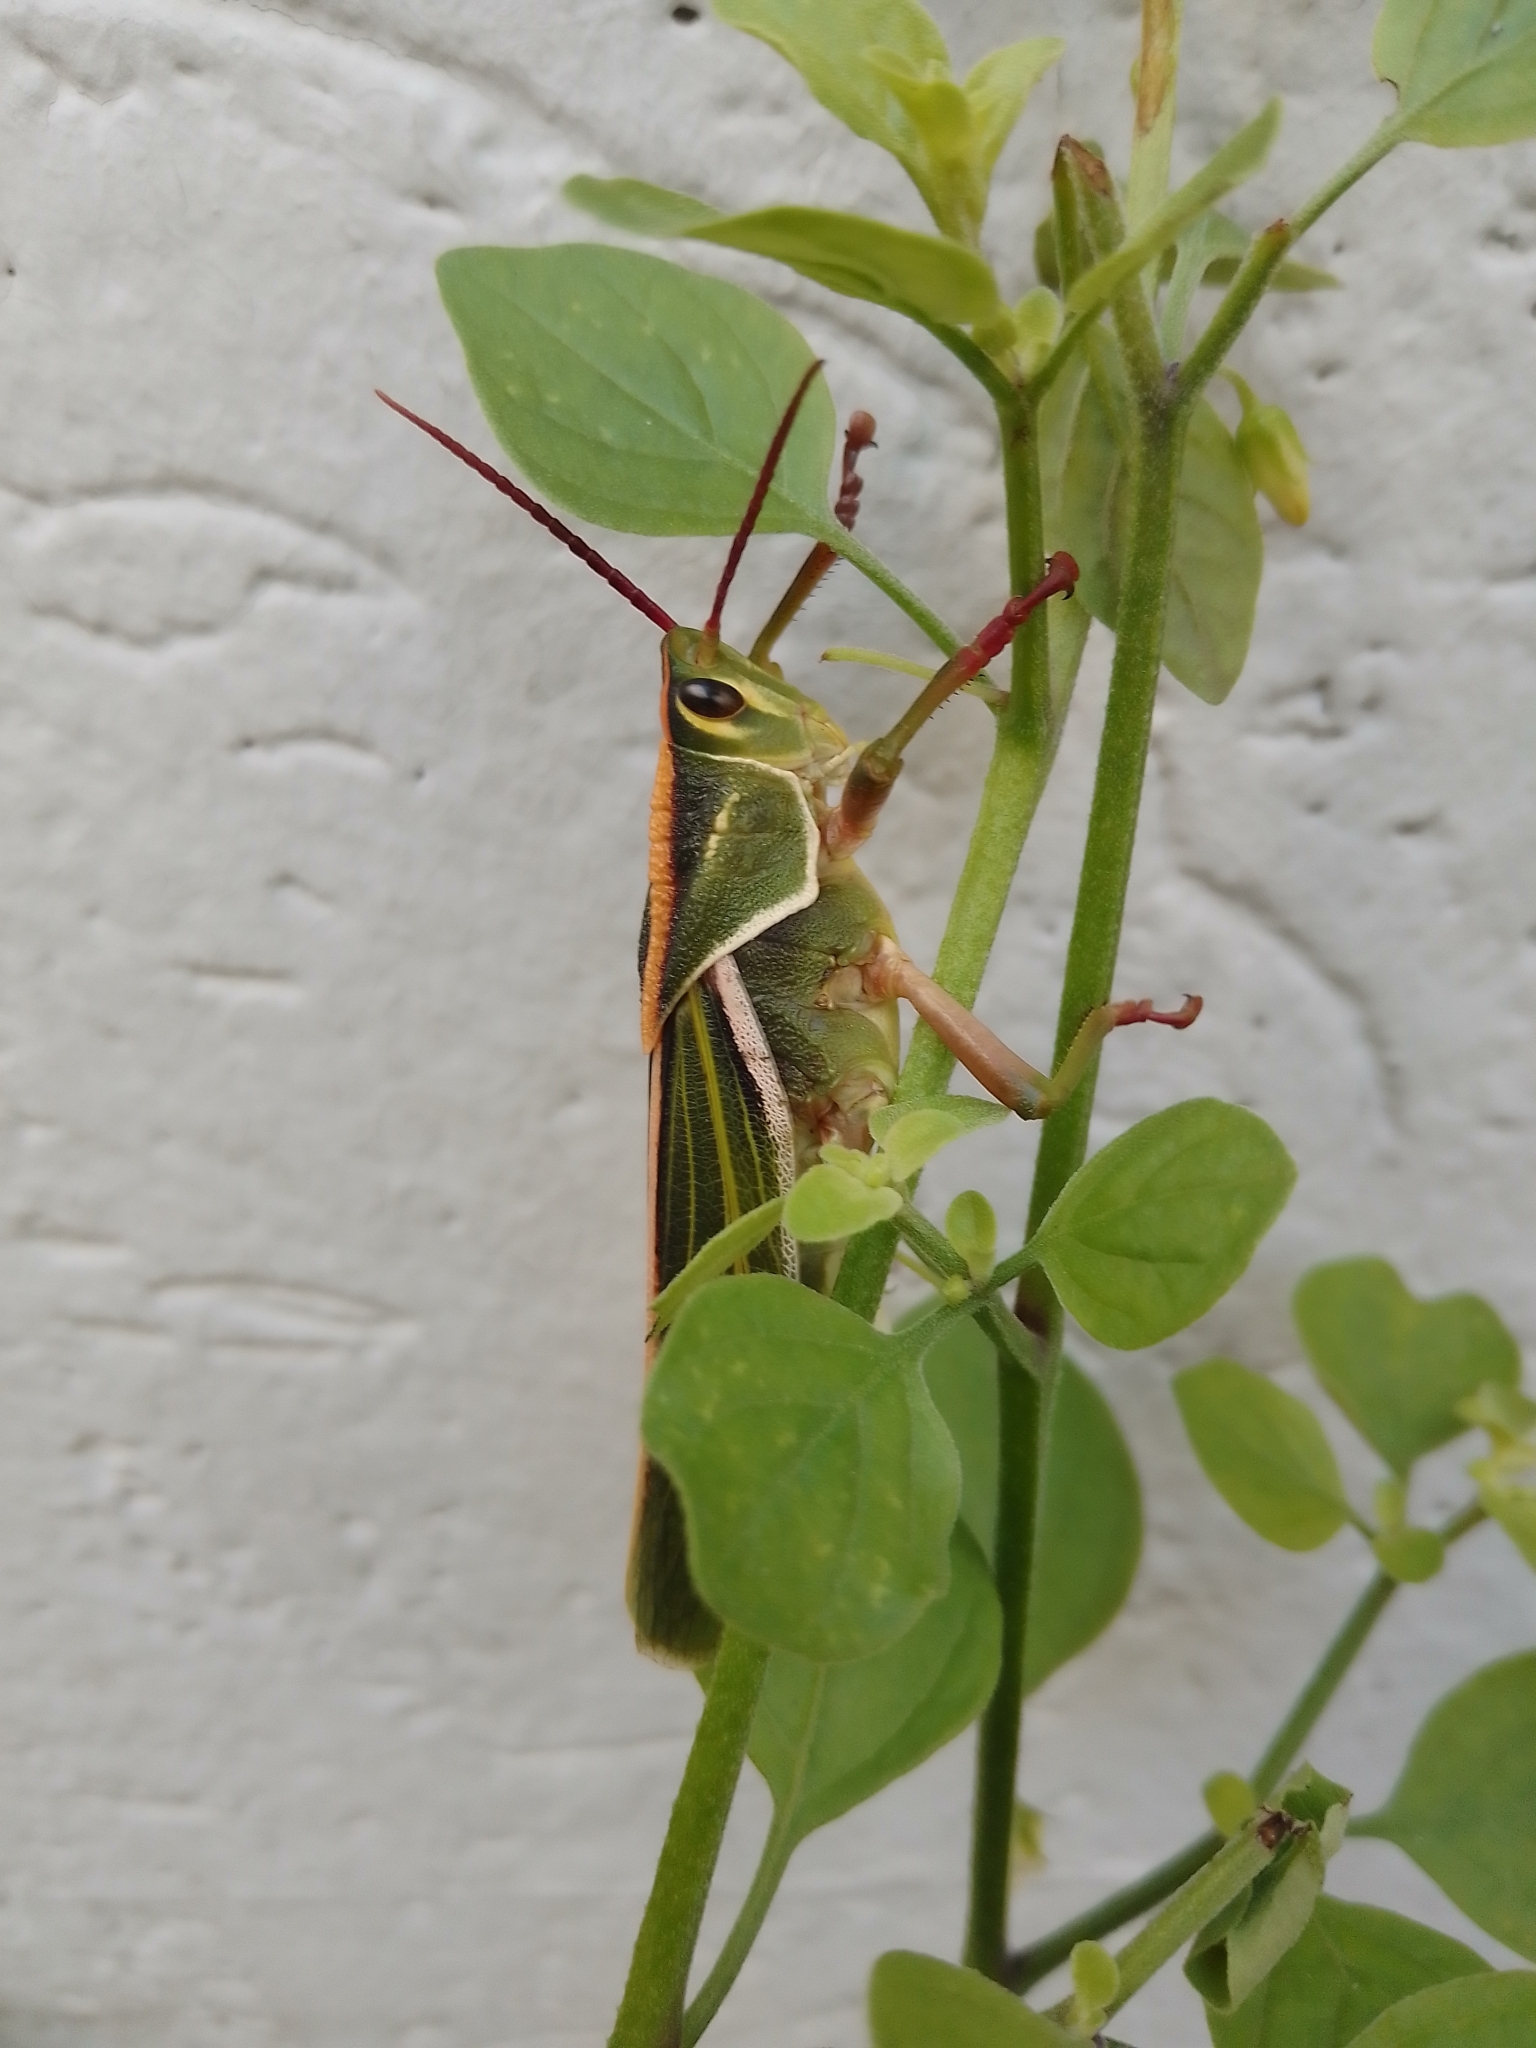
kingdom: Animalia
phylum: Arthropoda
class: Insecta
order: Orthoptera
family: Romaleidae
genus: Staleochlora
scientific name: Staleochlora viridicata
